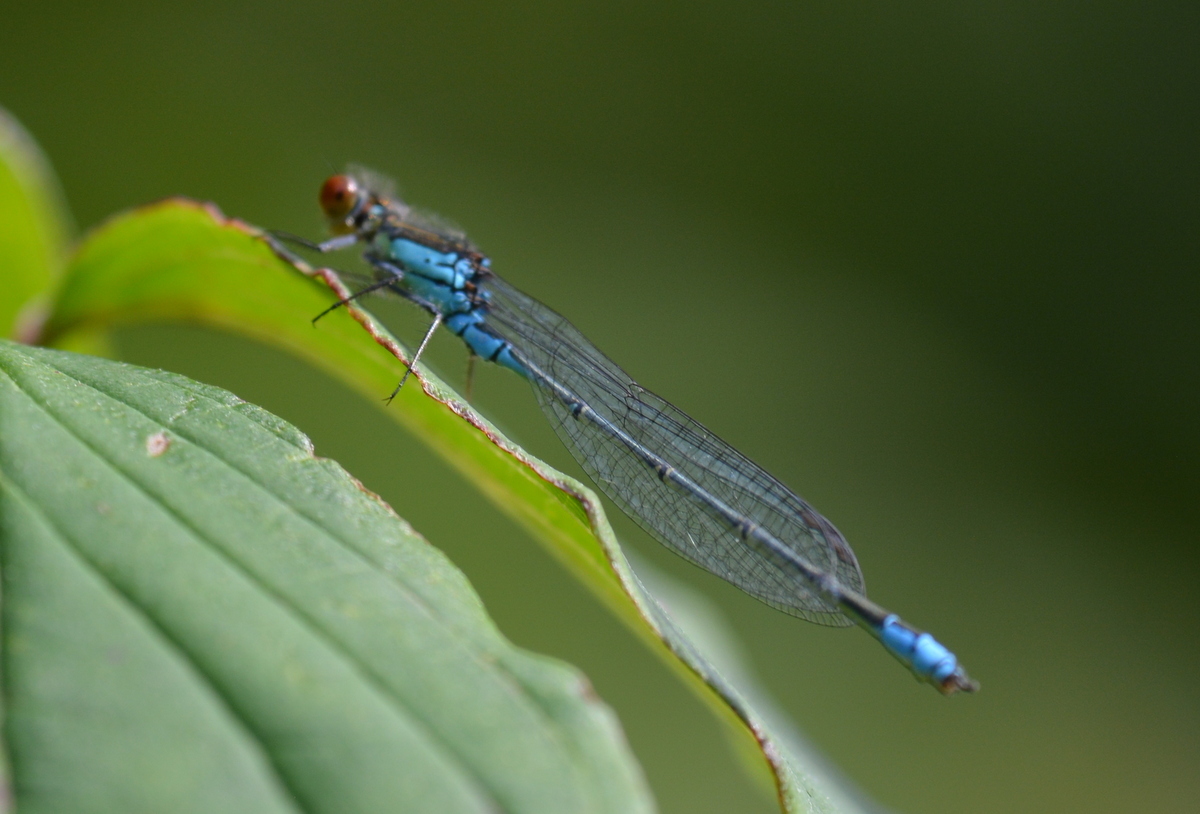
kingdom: Animalia
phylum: Arthropoda
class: Insecta
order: Odonata
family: Coenagrionidae
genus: Erythromma
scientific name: Erythromma viridulum
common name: Small red-eyed damselfly
